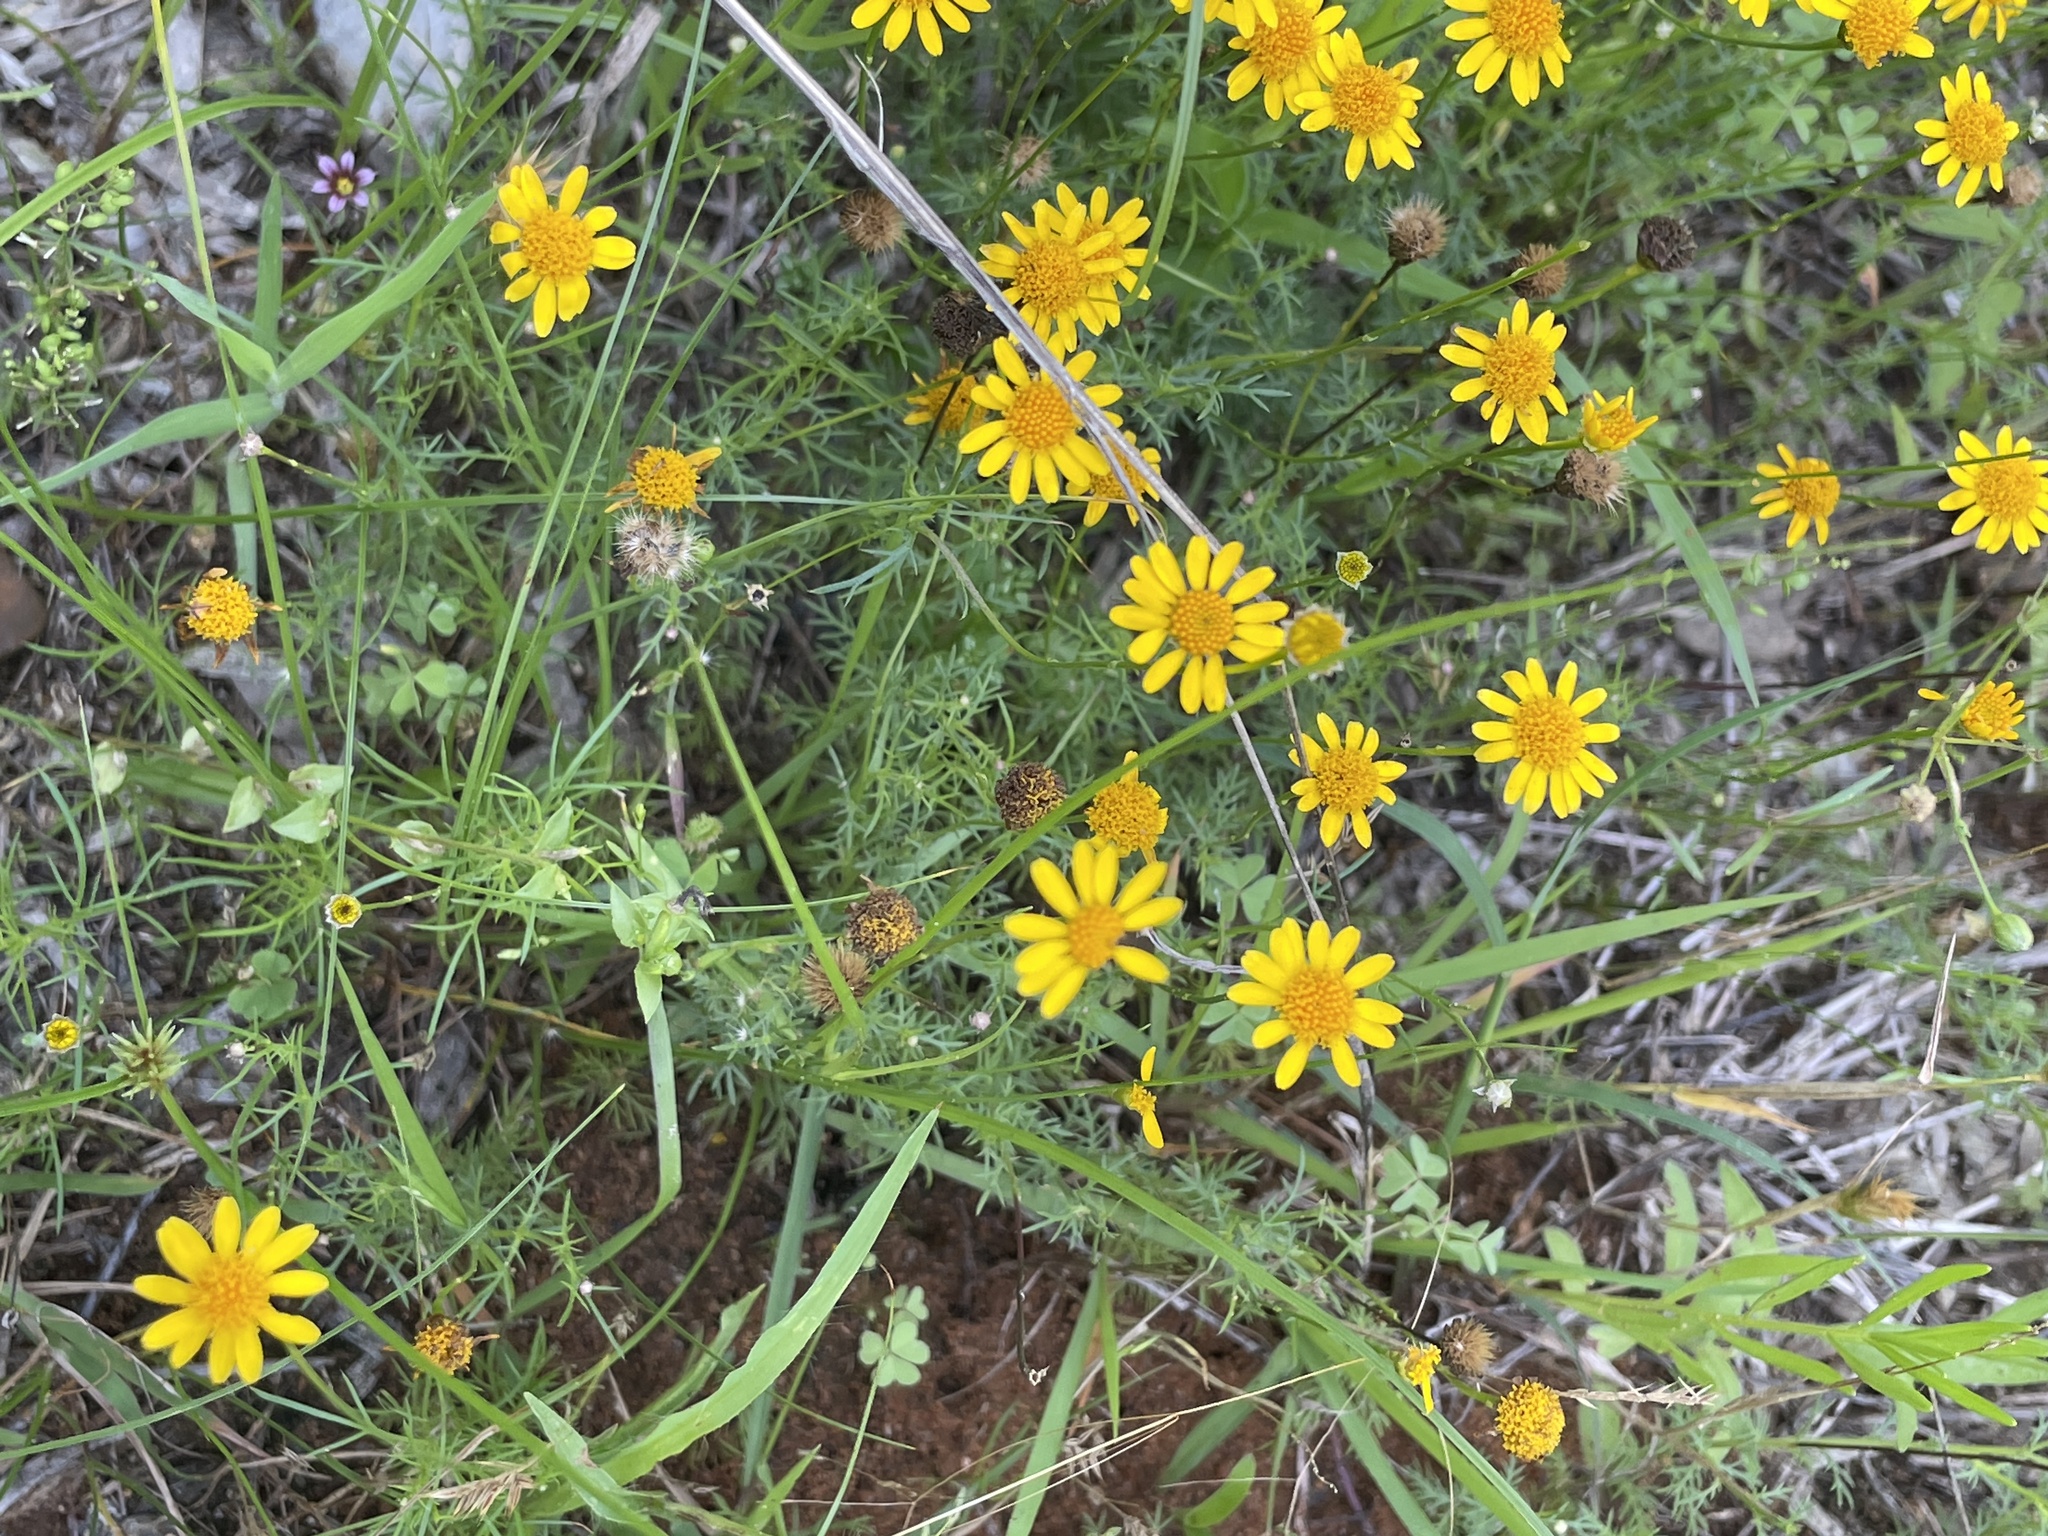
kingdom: Plantae
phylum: Tracheophyta
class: Magnoliopsida
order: Asterales
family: Asteraceae
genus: Thymophylla
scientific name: Thymophylla pentachaeta
